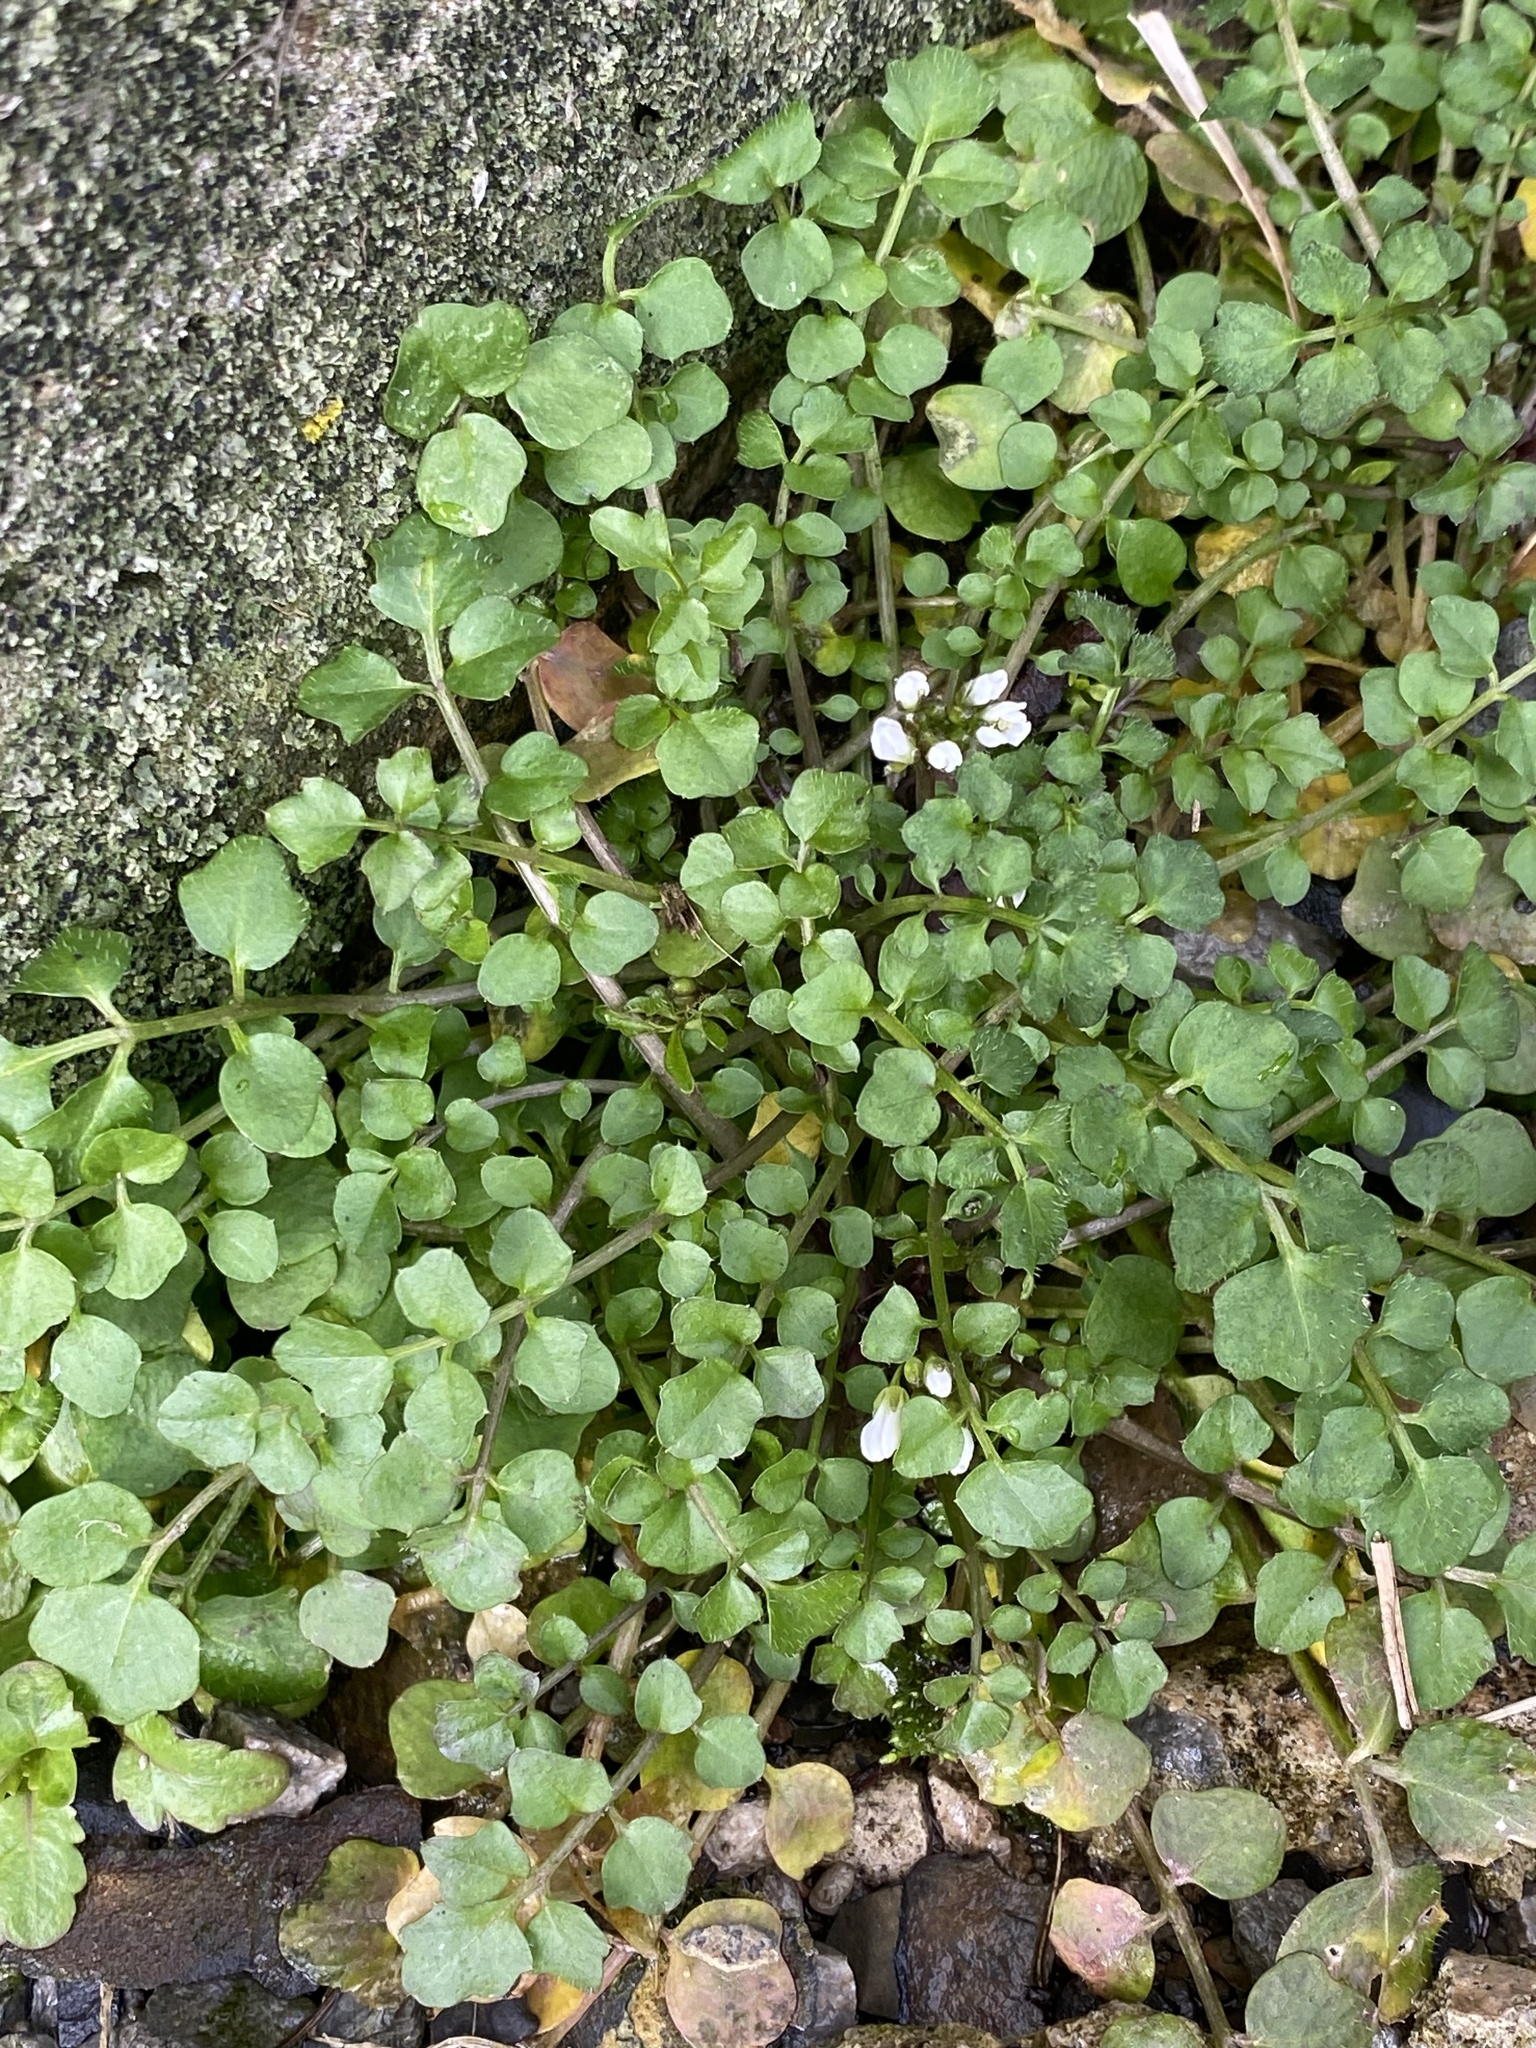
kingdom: Plantae
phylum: Tracheophyta
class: Magnoliopsida
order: Brassicales
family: Brassicaceae
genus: Cardamine
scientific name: Cardamine hirsuta
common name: Hairy bittercress
